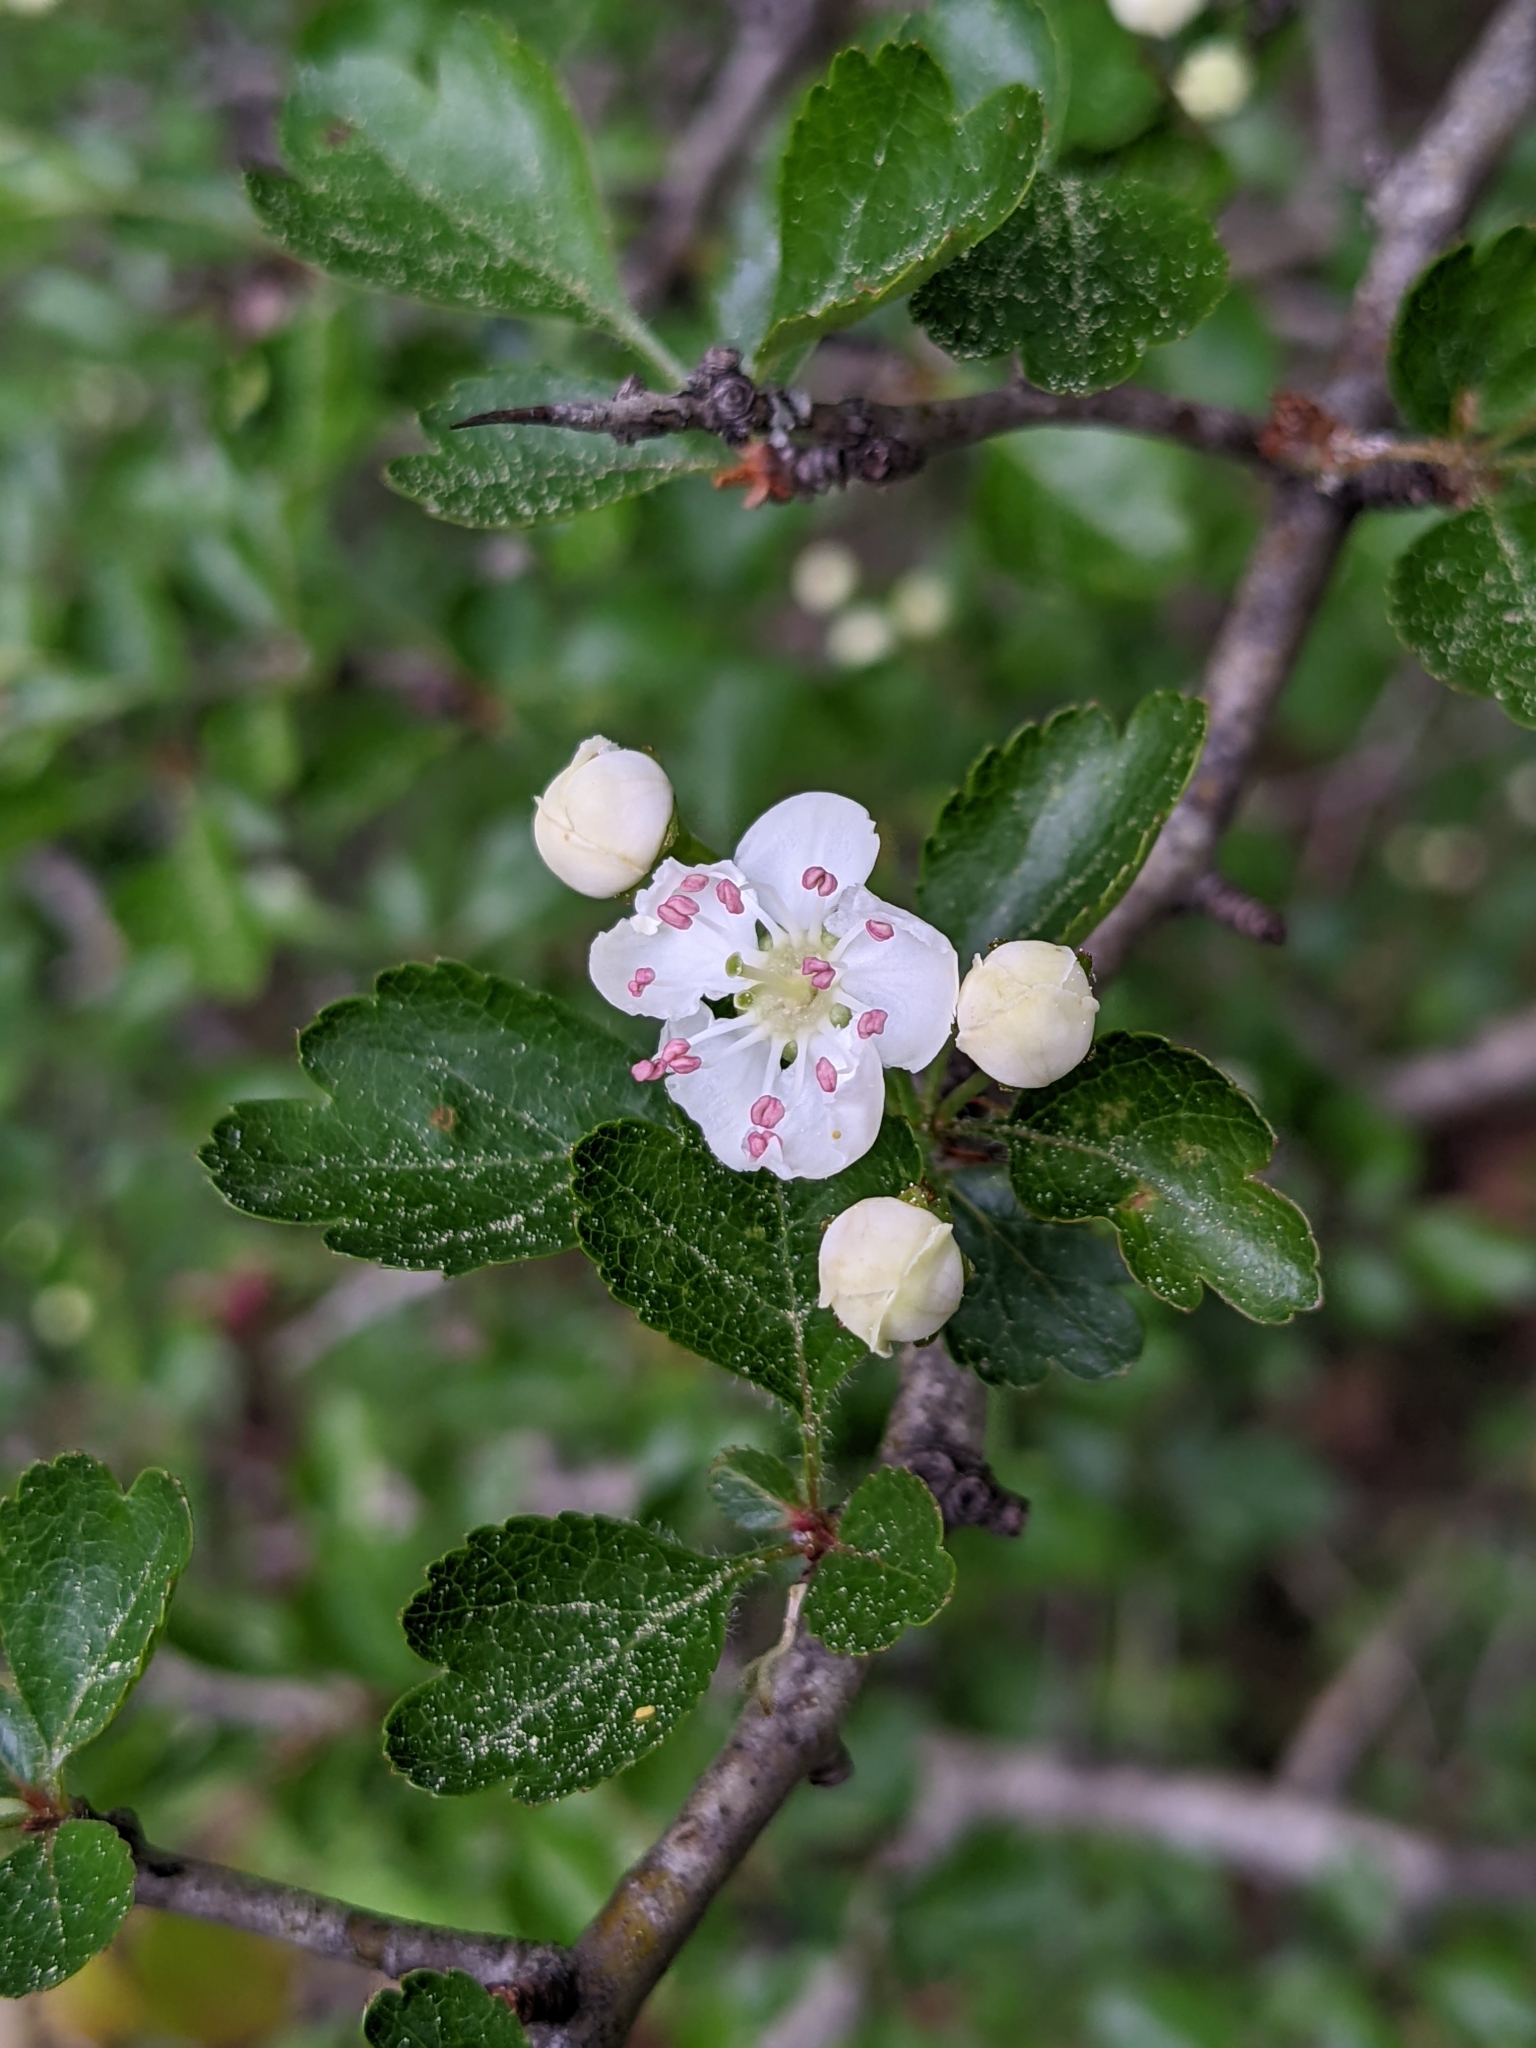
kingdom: Plantae
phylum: Tracheophyta
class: Magnoliopsida
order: Rosales
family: Rosaceae
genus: Crataegus
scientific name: Crataegus laevigata
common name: Midland hawthorn
